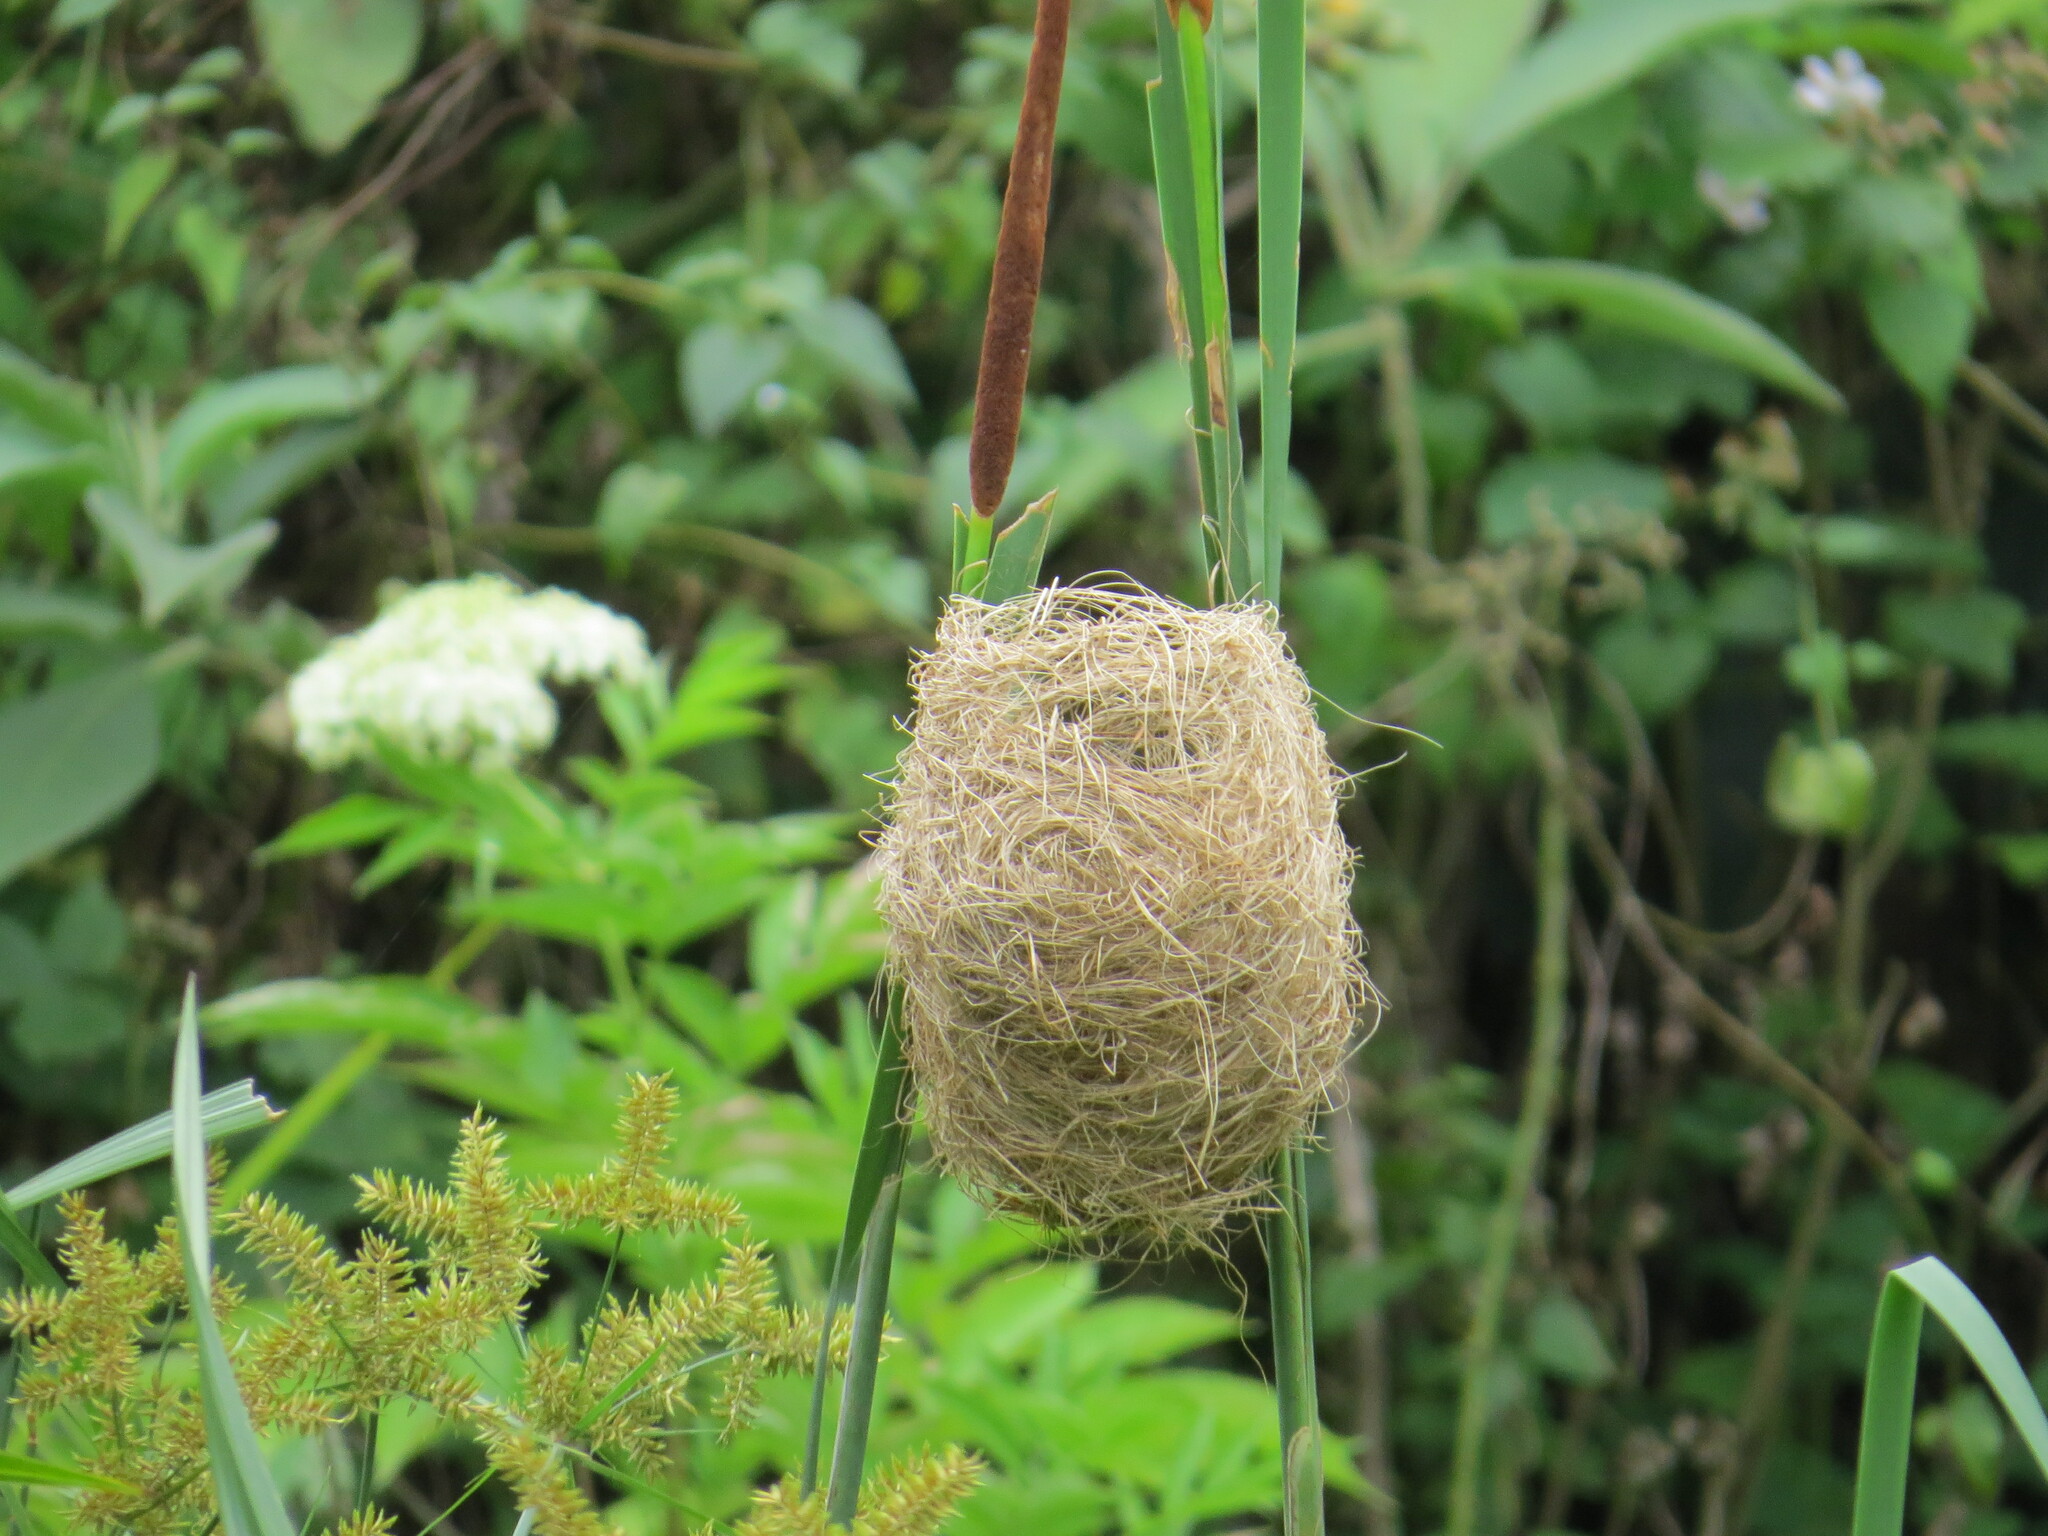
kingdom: Animalia
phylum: Chordata
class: Aves
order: Passeriformes
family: Ploceidae
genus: Amblyospiza
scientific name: Amblyospiza albifrons
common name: Thick-billed weaver
